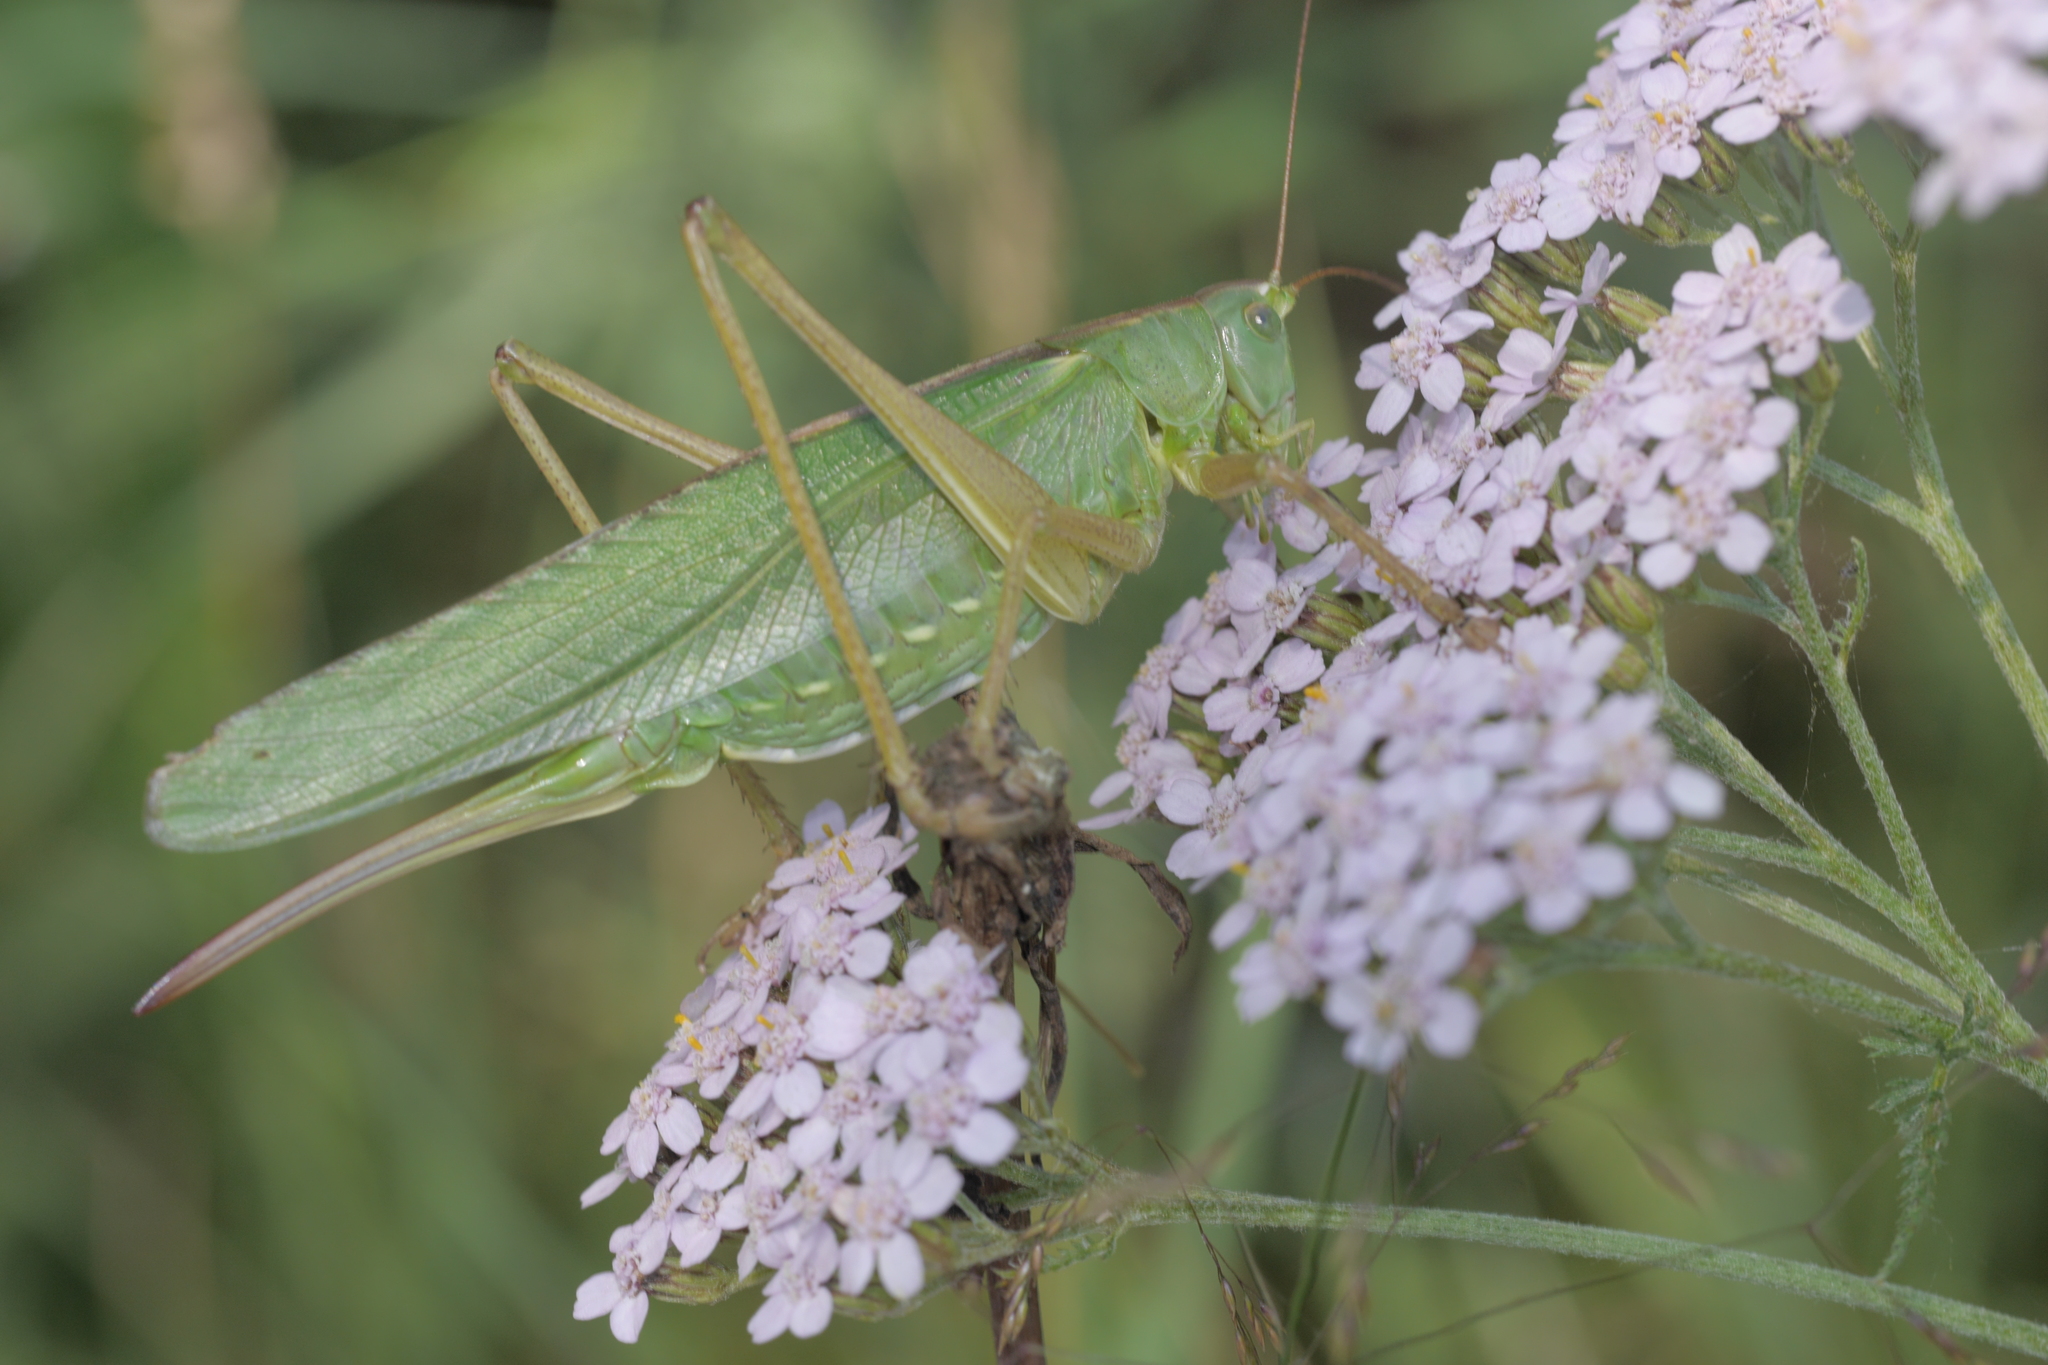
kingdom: Animalia
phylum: Arthropoda
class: Insecta
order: Orthoptera
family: Tettigoniidae
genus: Tettigonia
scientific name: Tettigonia viridissima
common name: Great green bush-cricket
